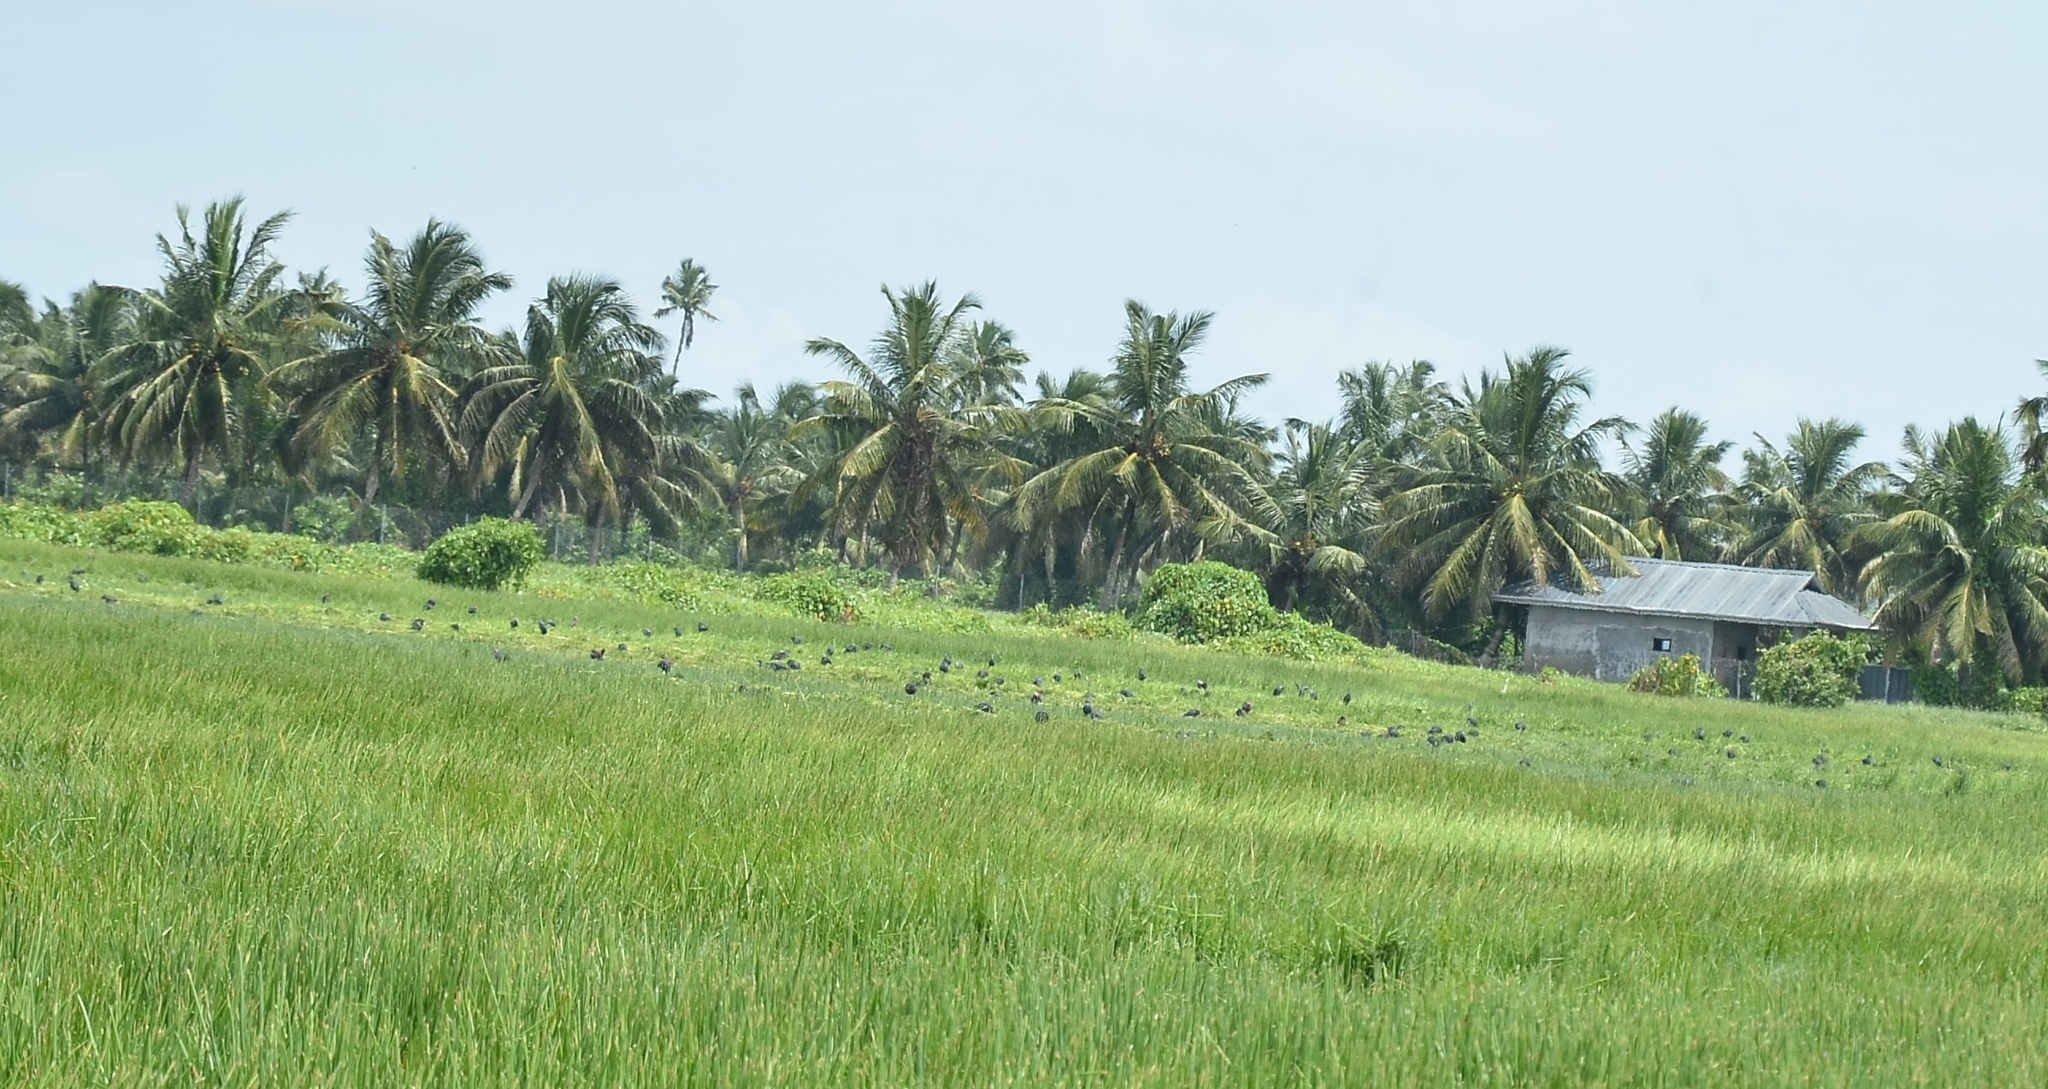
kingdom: Animalia
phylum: Chordata
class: Aves
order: Gruiformes
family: Rallidae
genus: Porphyrio
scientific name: Porphyrio porphyrio
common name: Purple swamphen
